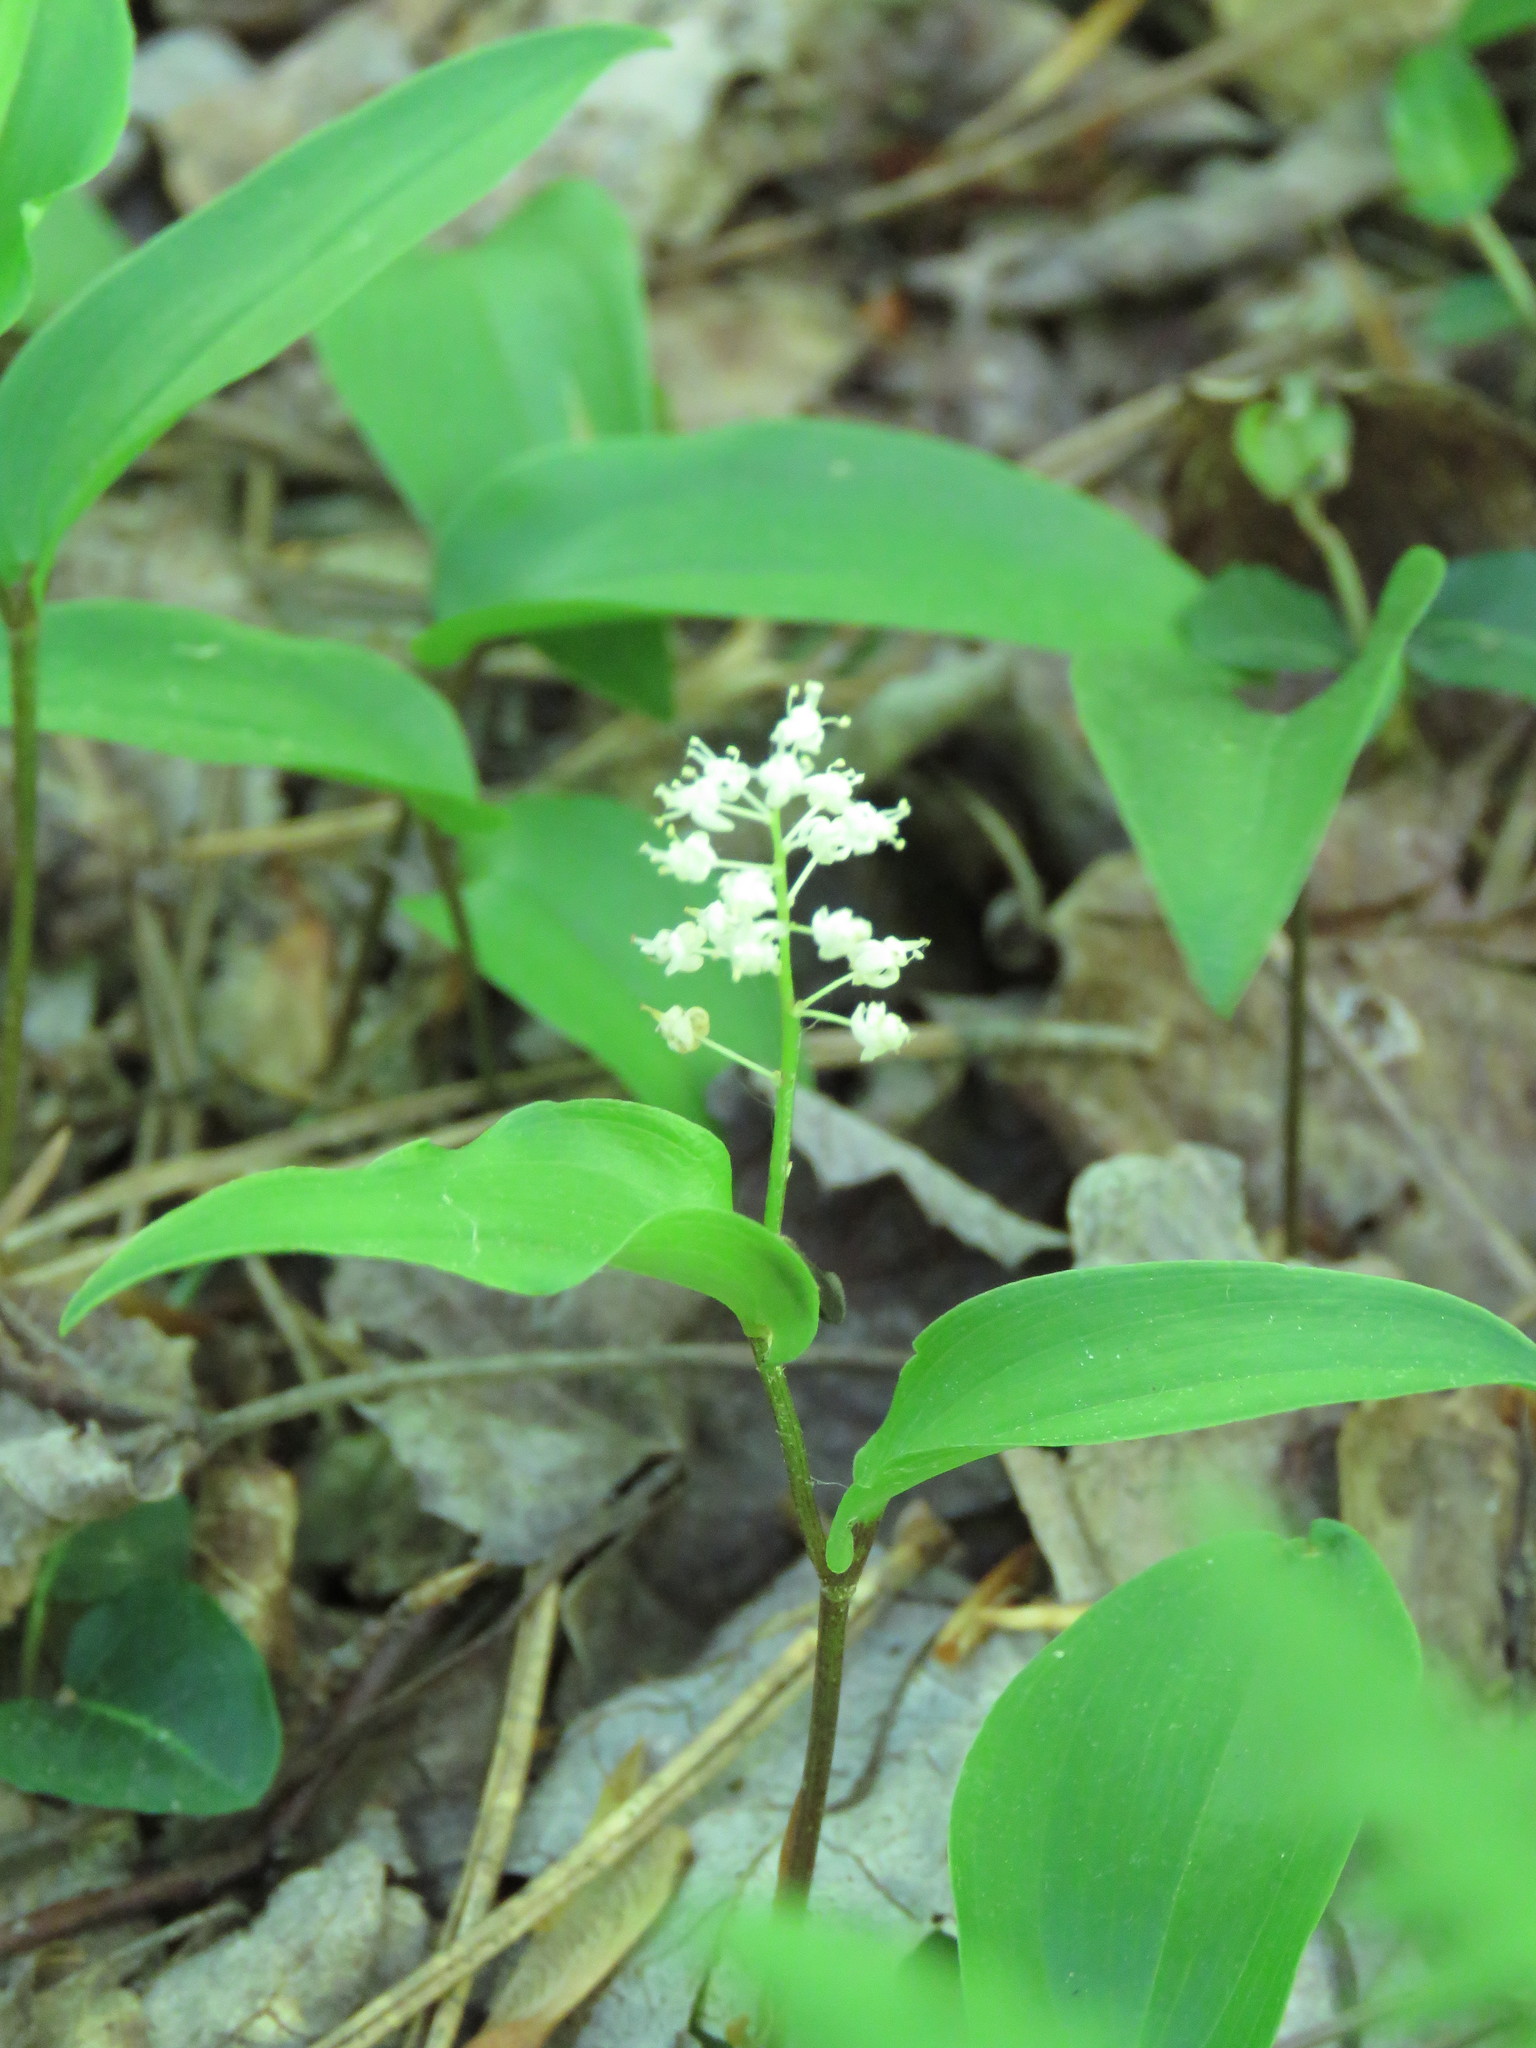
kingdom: Plantae
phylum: Tracheophyta
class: Liliopsida
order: Asparagales
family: Asparagaceae
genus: Maianthemum
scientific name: Maianthemum canadense
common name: False lily-of-the-valley
